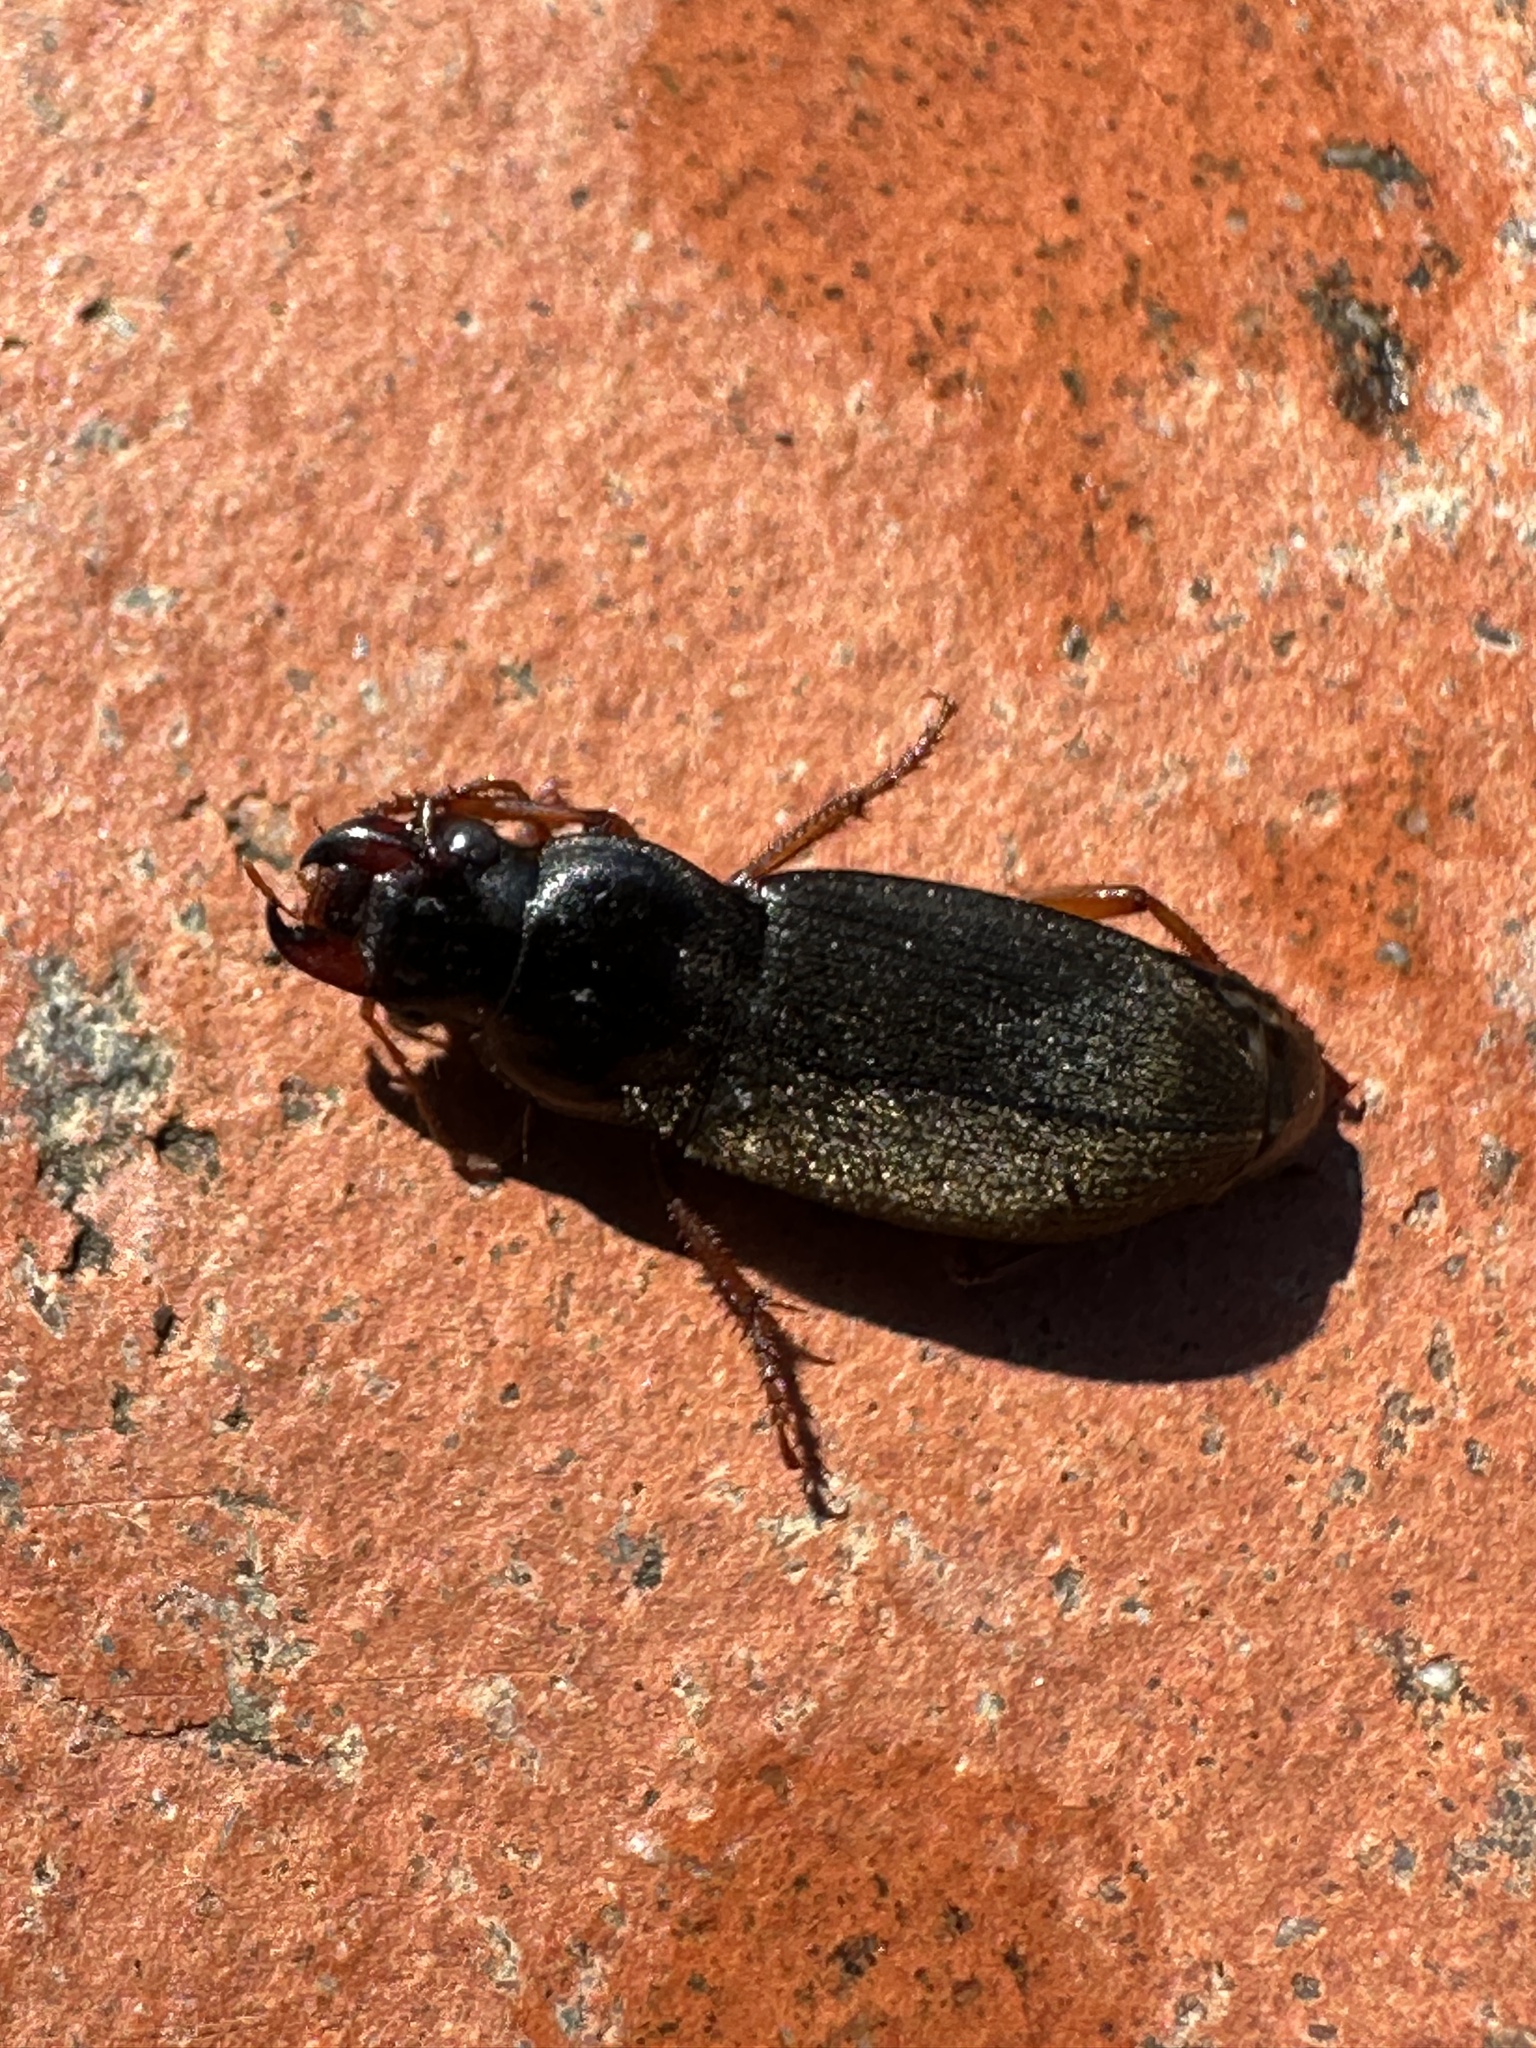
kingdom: Animalia
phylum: Arthropoda
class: Insecta
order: Coleoptera
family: Carabidae
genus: Harpalus
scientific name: Harpalus rufipes
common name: Strawberry harp ground beetle
